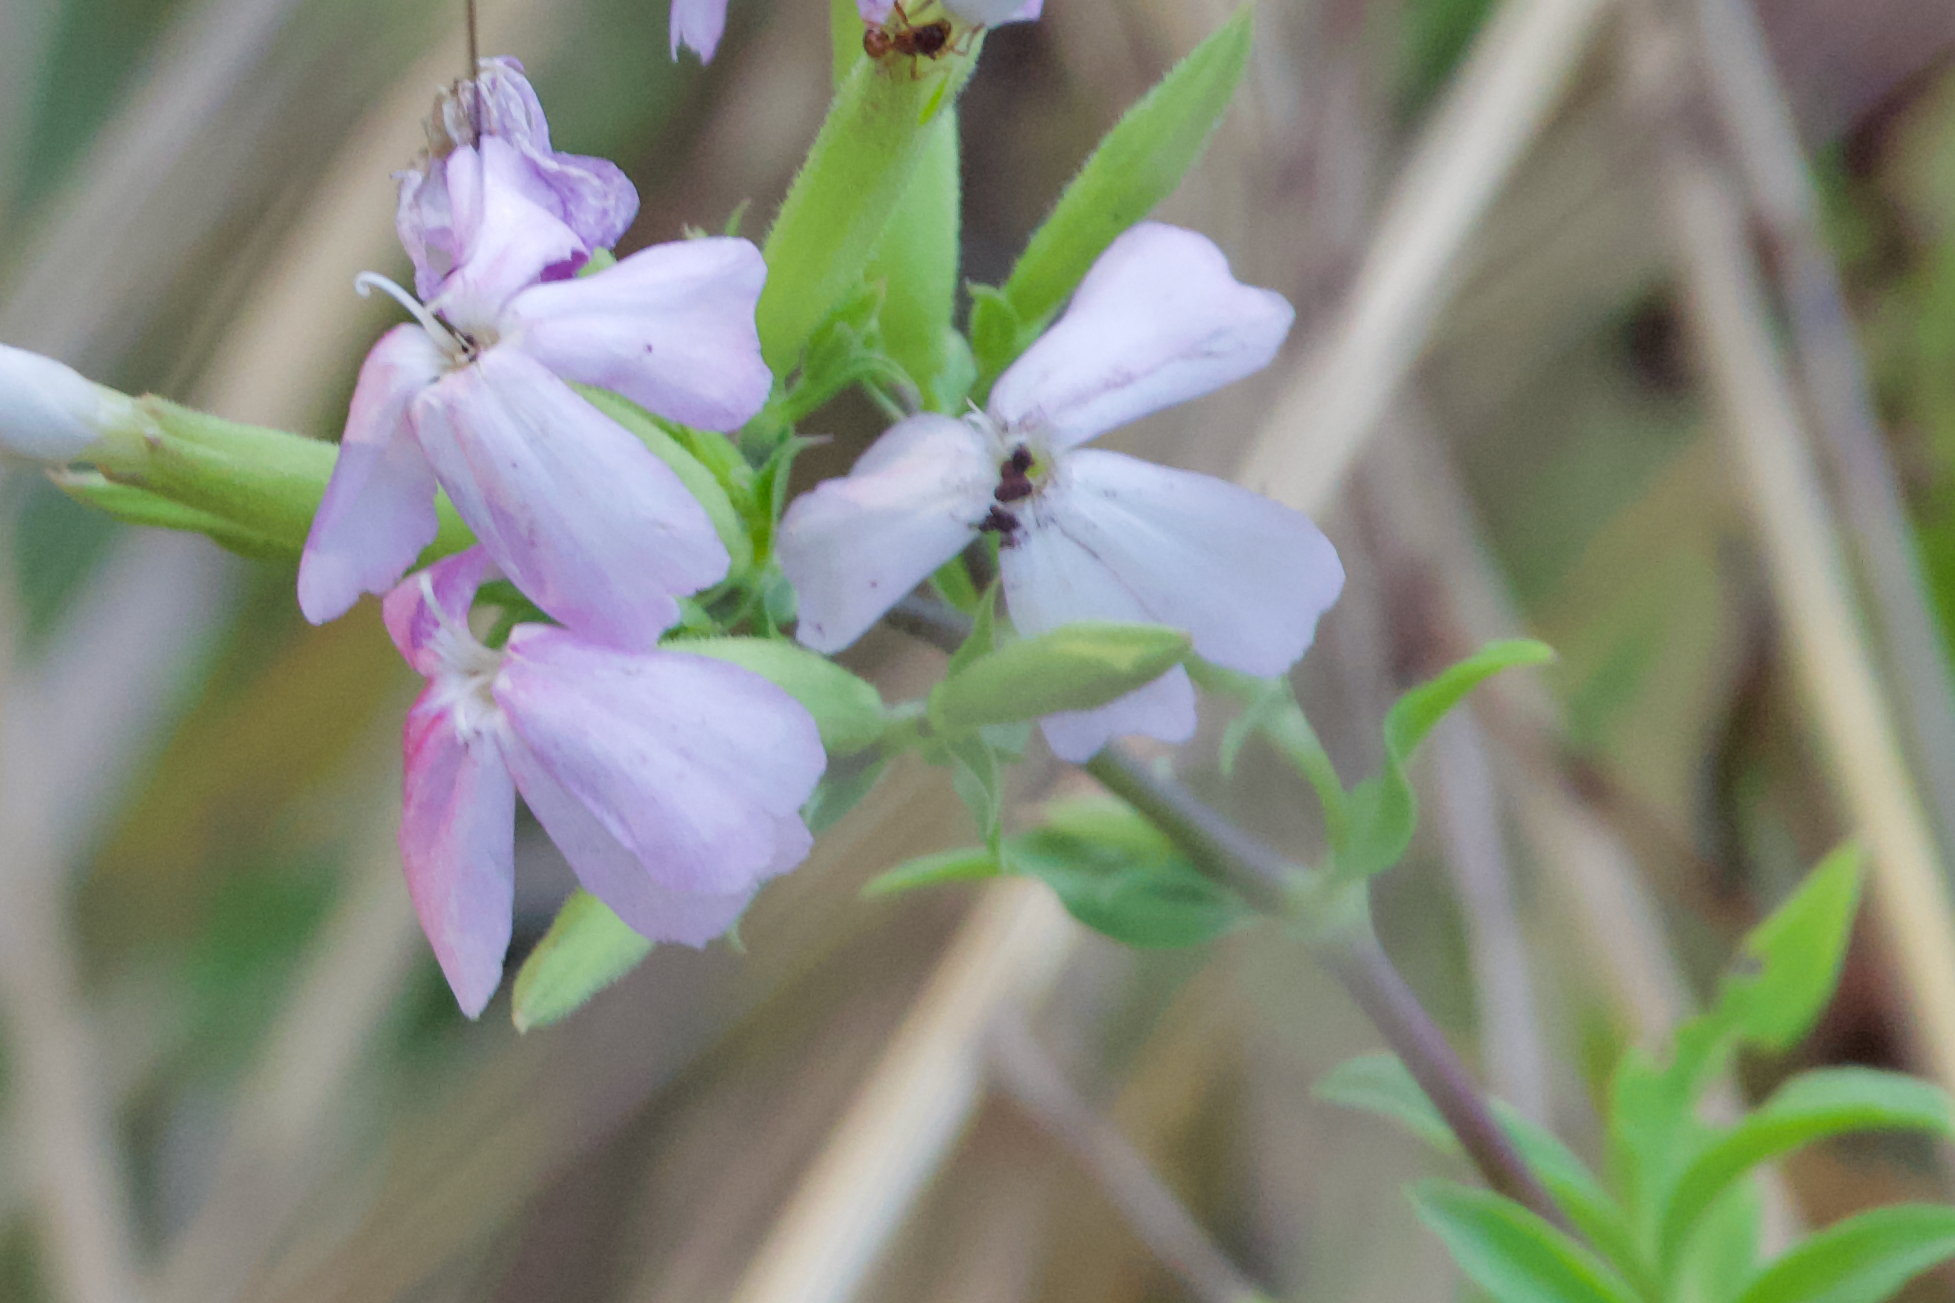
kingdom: Plantae
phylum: Tracheophyta
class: Magnoliopsida
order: Caryophyllales
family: Caryophyllaceae
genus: Saponaria
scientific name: Saponaria officinalis
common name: Soapwort
